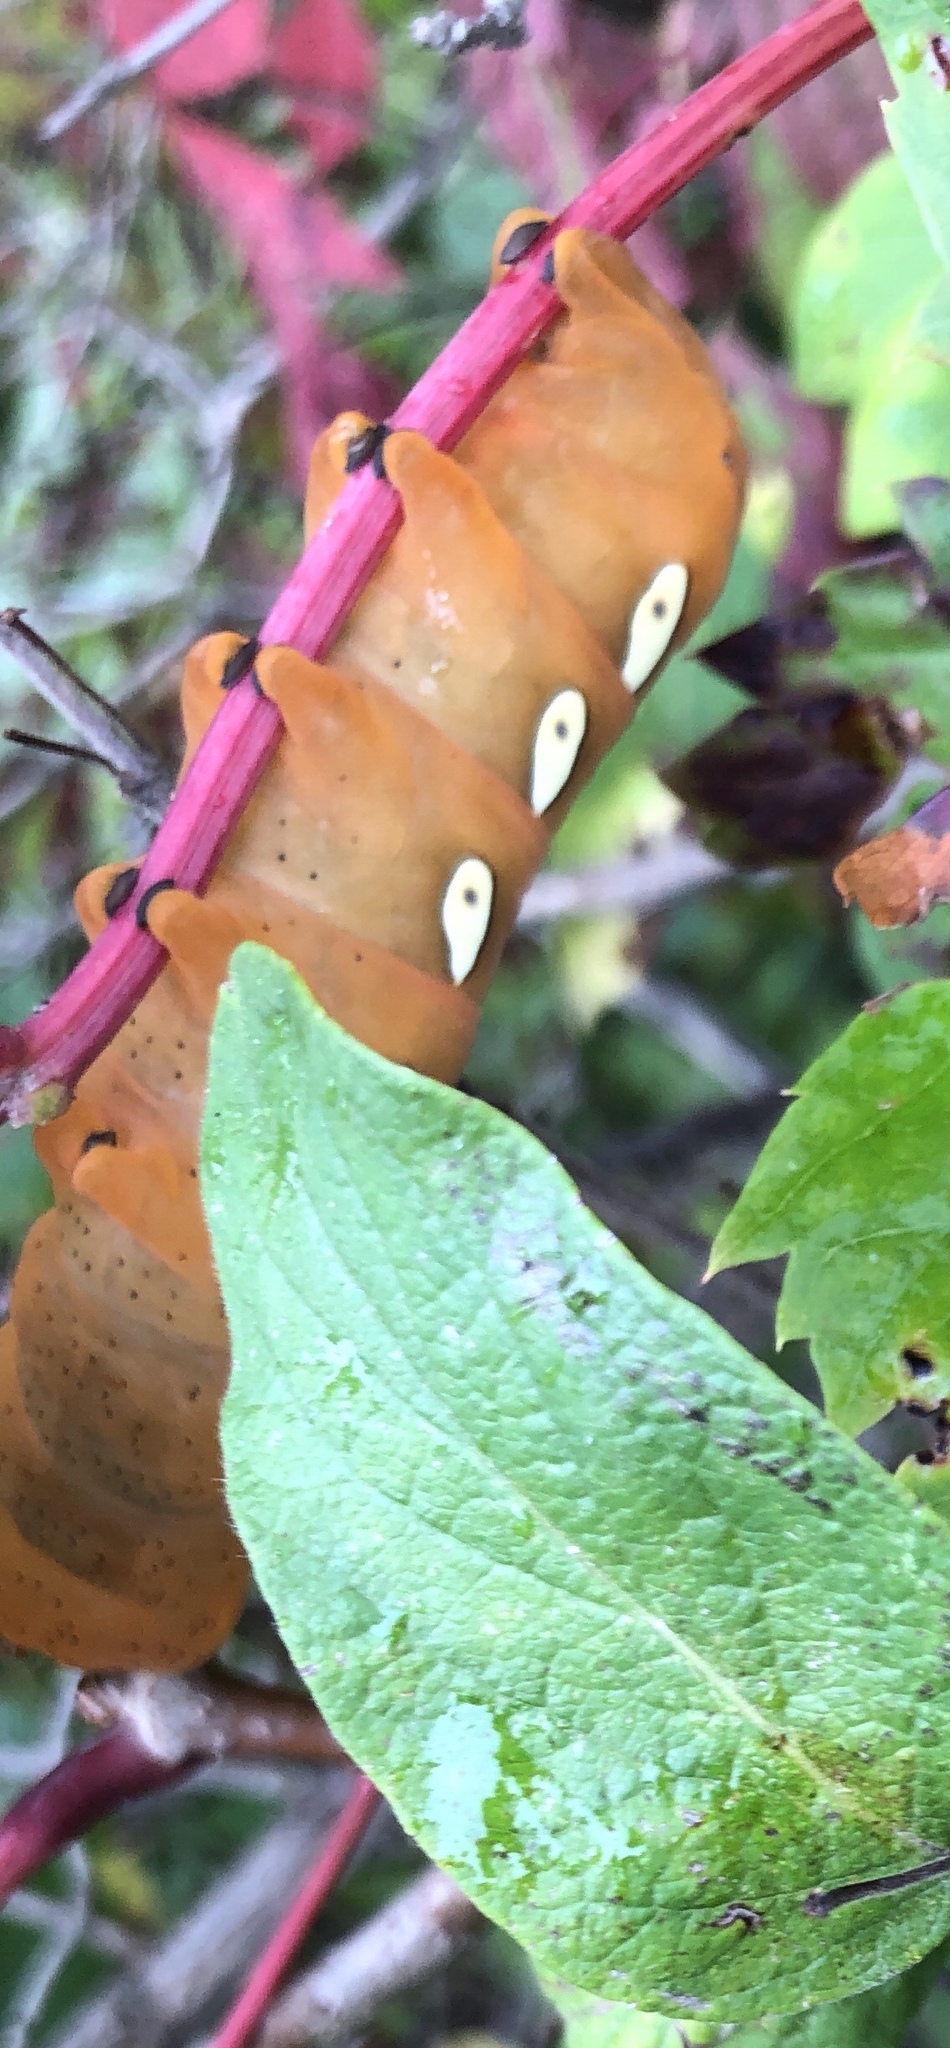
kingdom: Animalia
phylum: Arthropoda
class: Insecta
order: Lepidoptera
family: Sphingidae
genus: Eumorpha
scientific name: Eumorpha pandorus
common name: Pandora sphinx
